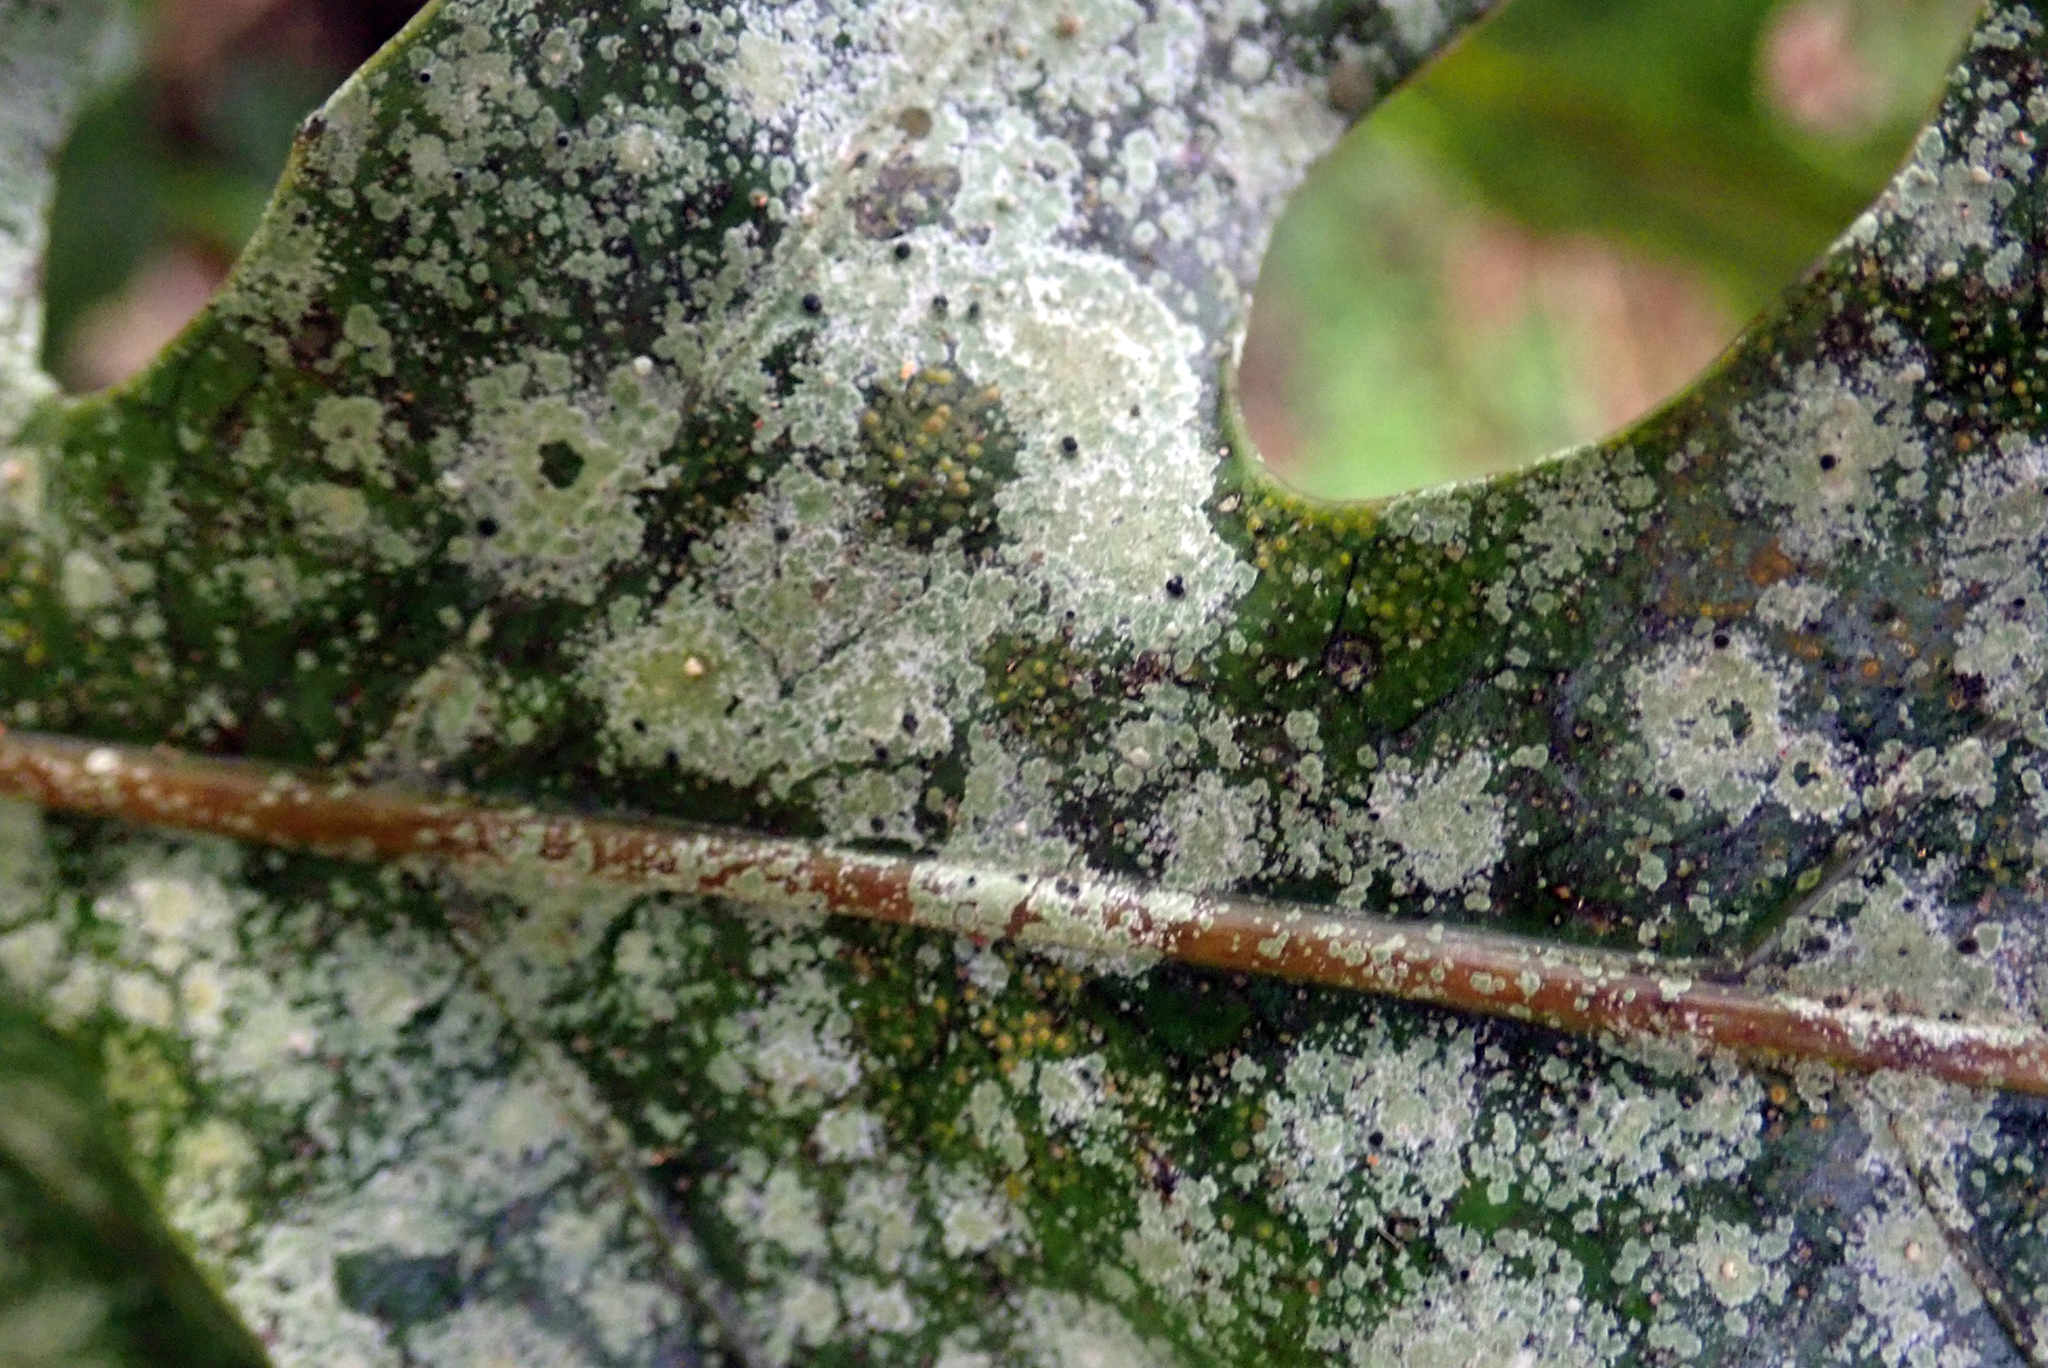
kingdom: Fungi
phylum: Ascomycota
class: Lecanoromycetes
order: Lecanorales
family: Byssolomataceae
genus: Calopadia
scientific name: Calopadia subcoerulescens
